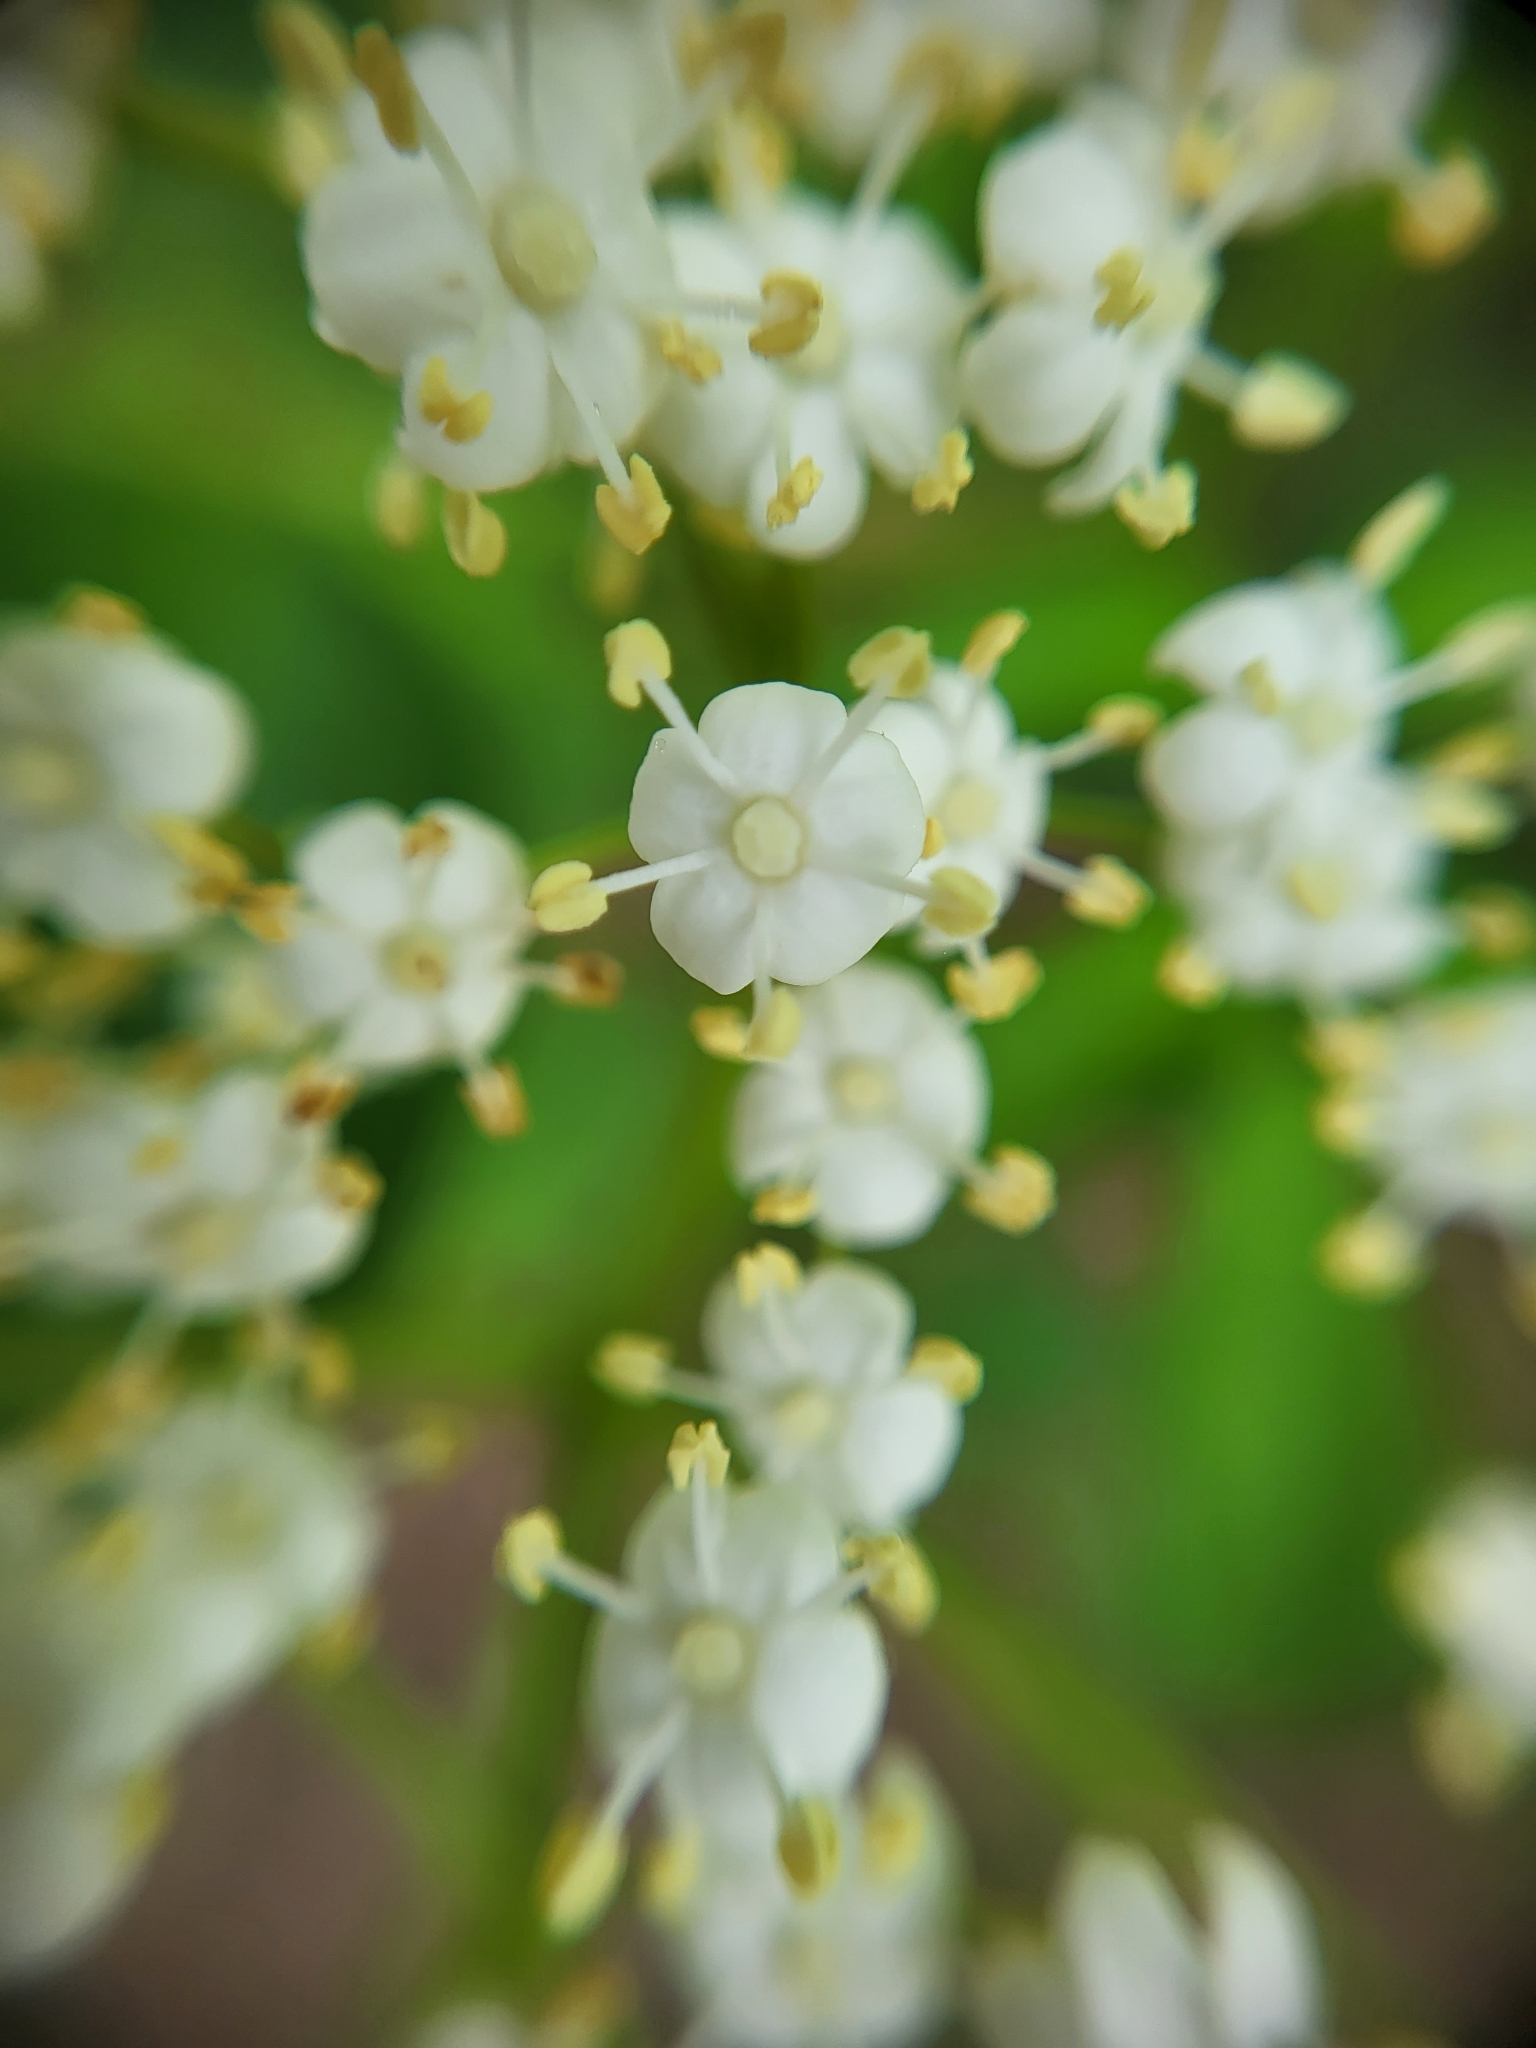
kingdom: Plantae
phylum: Tracheophyta
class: Magnoliopsida
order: Dipsacales
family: Viburnaceae
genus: Sambucus
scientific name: Sambucus canadensis
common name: American elder
